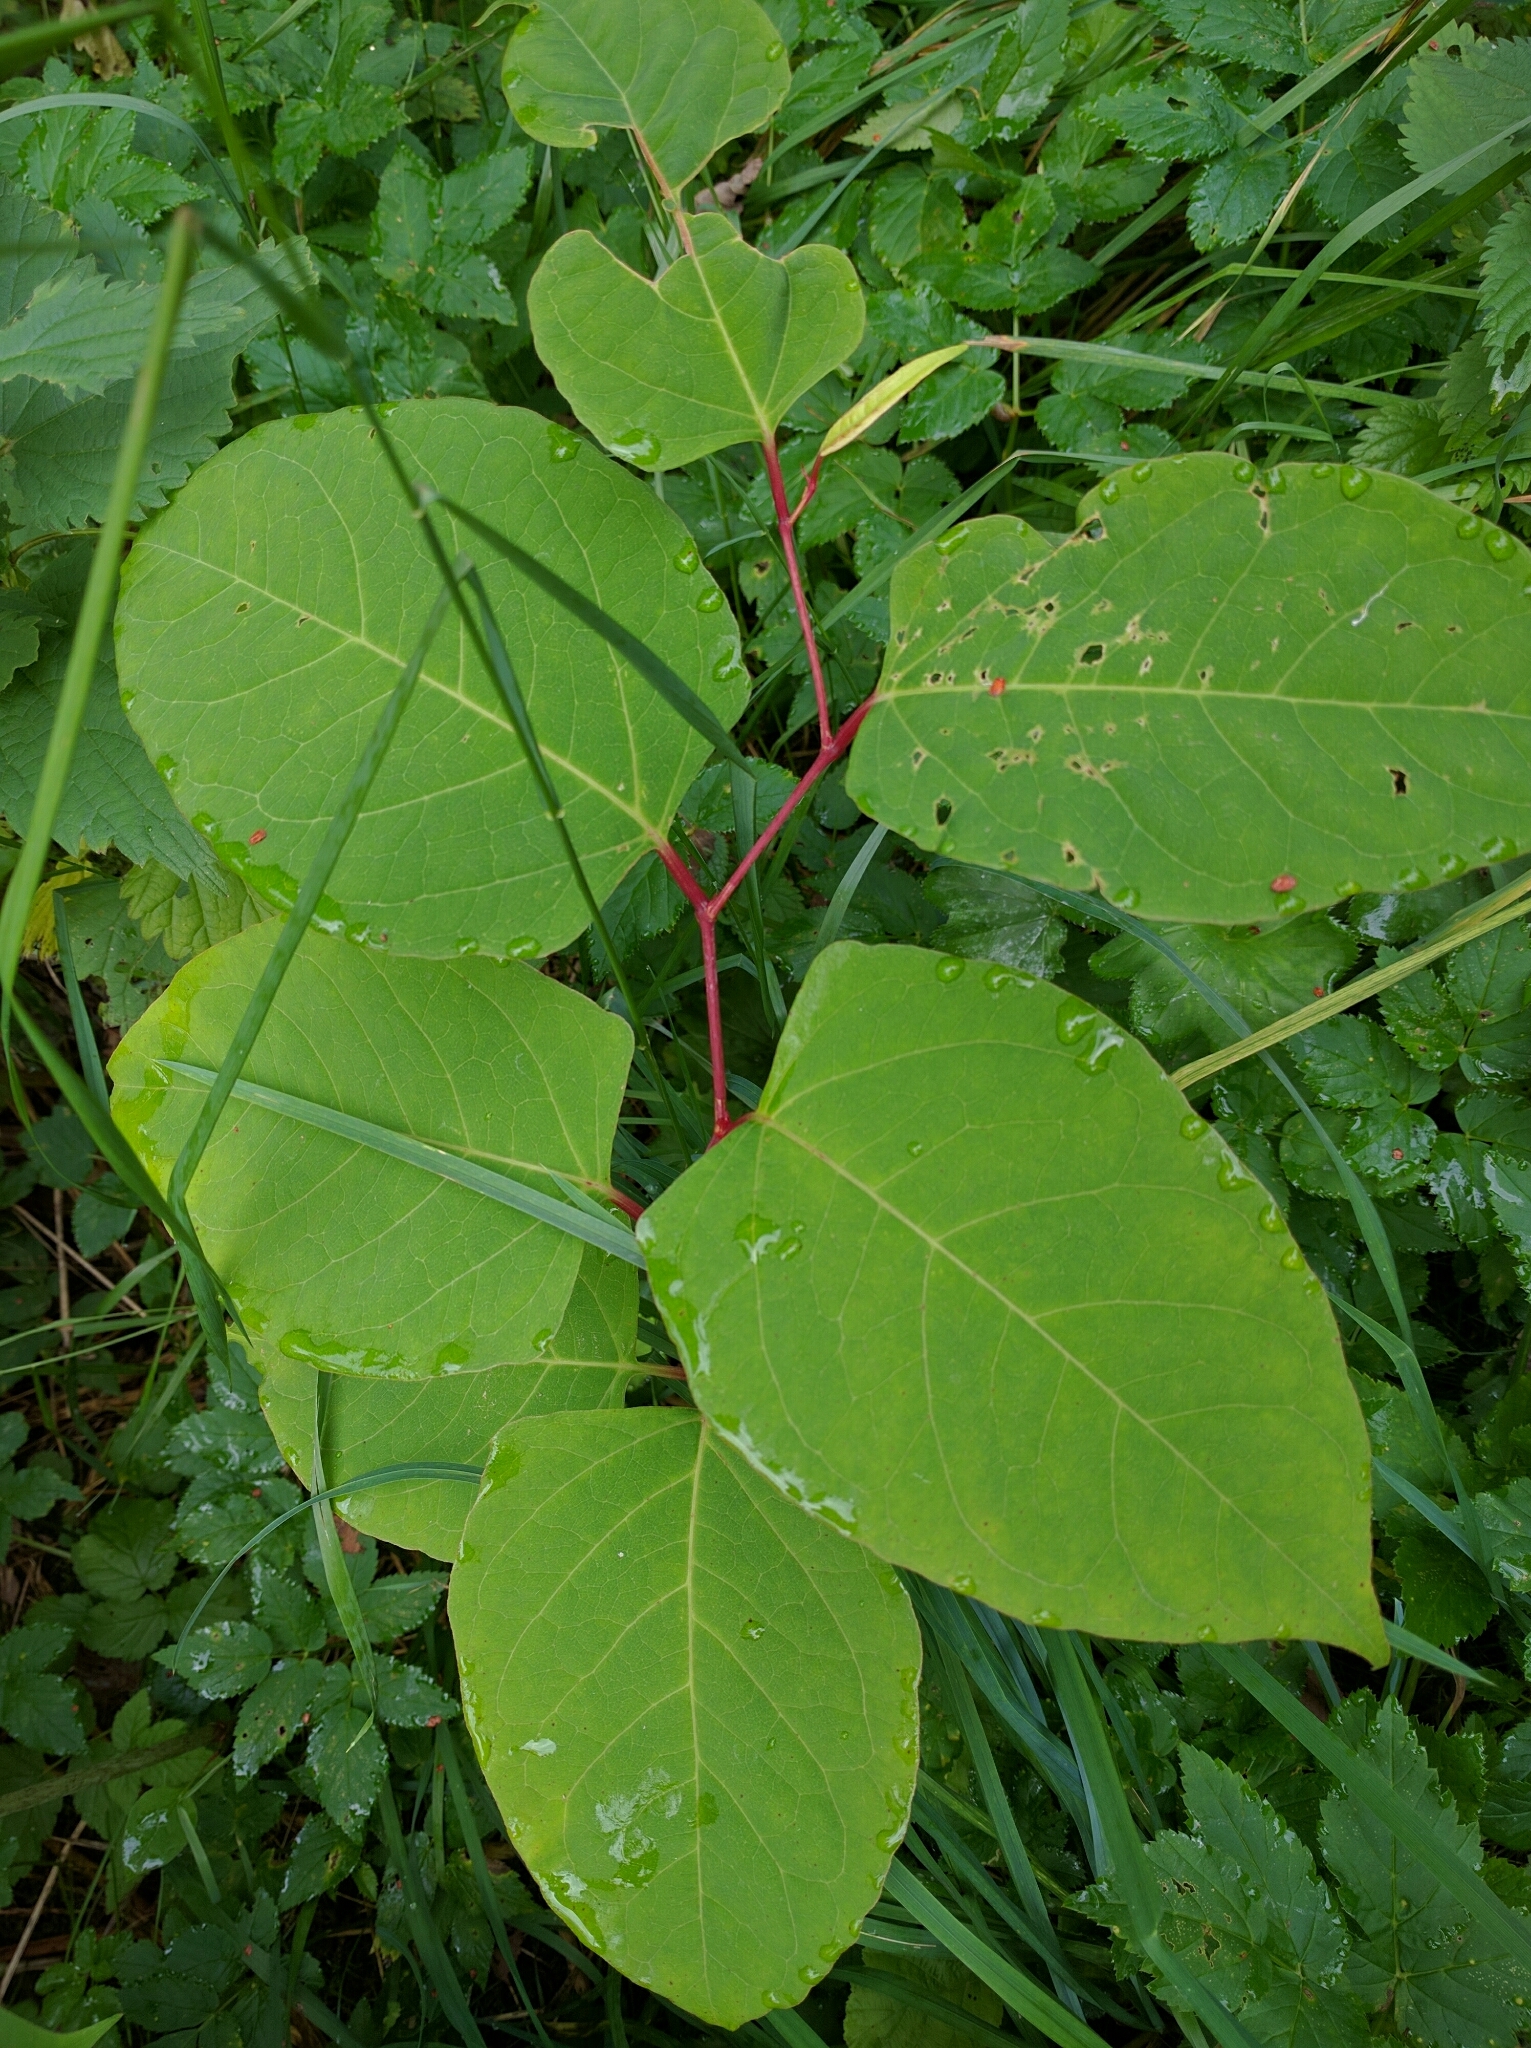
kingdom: Plantae
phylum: Tracheophyta
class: Magnoliopsida
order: Caryophyllales
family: Polygonaceae
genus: Reynoutria
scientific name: Reynoutria japonica
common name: Japanese knotweed
